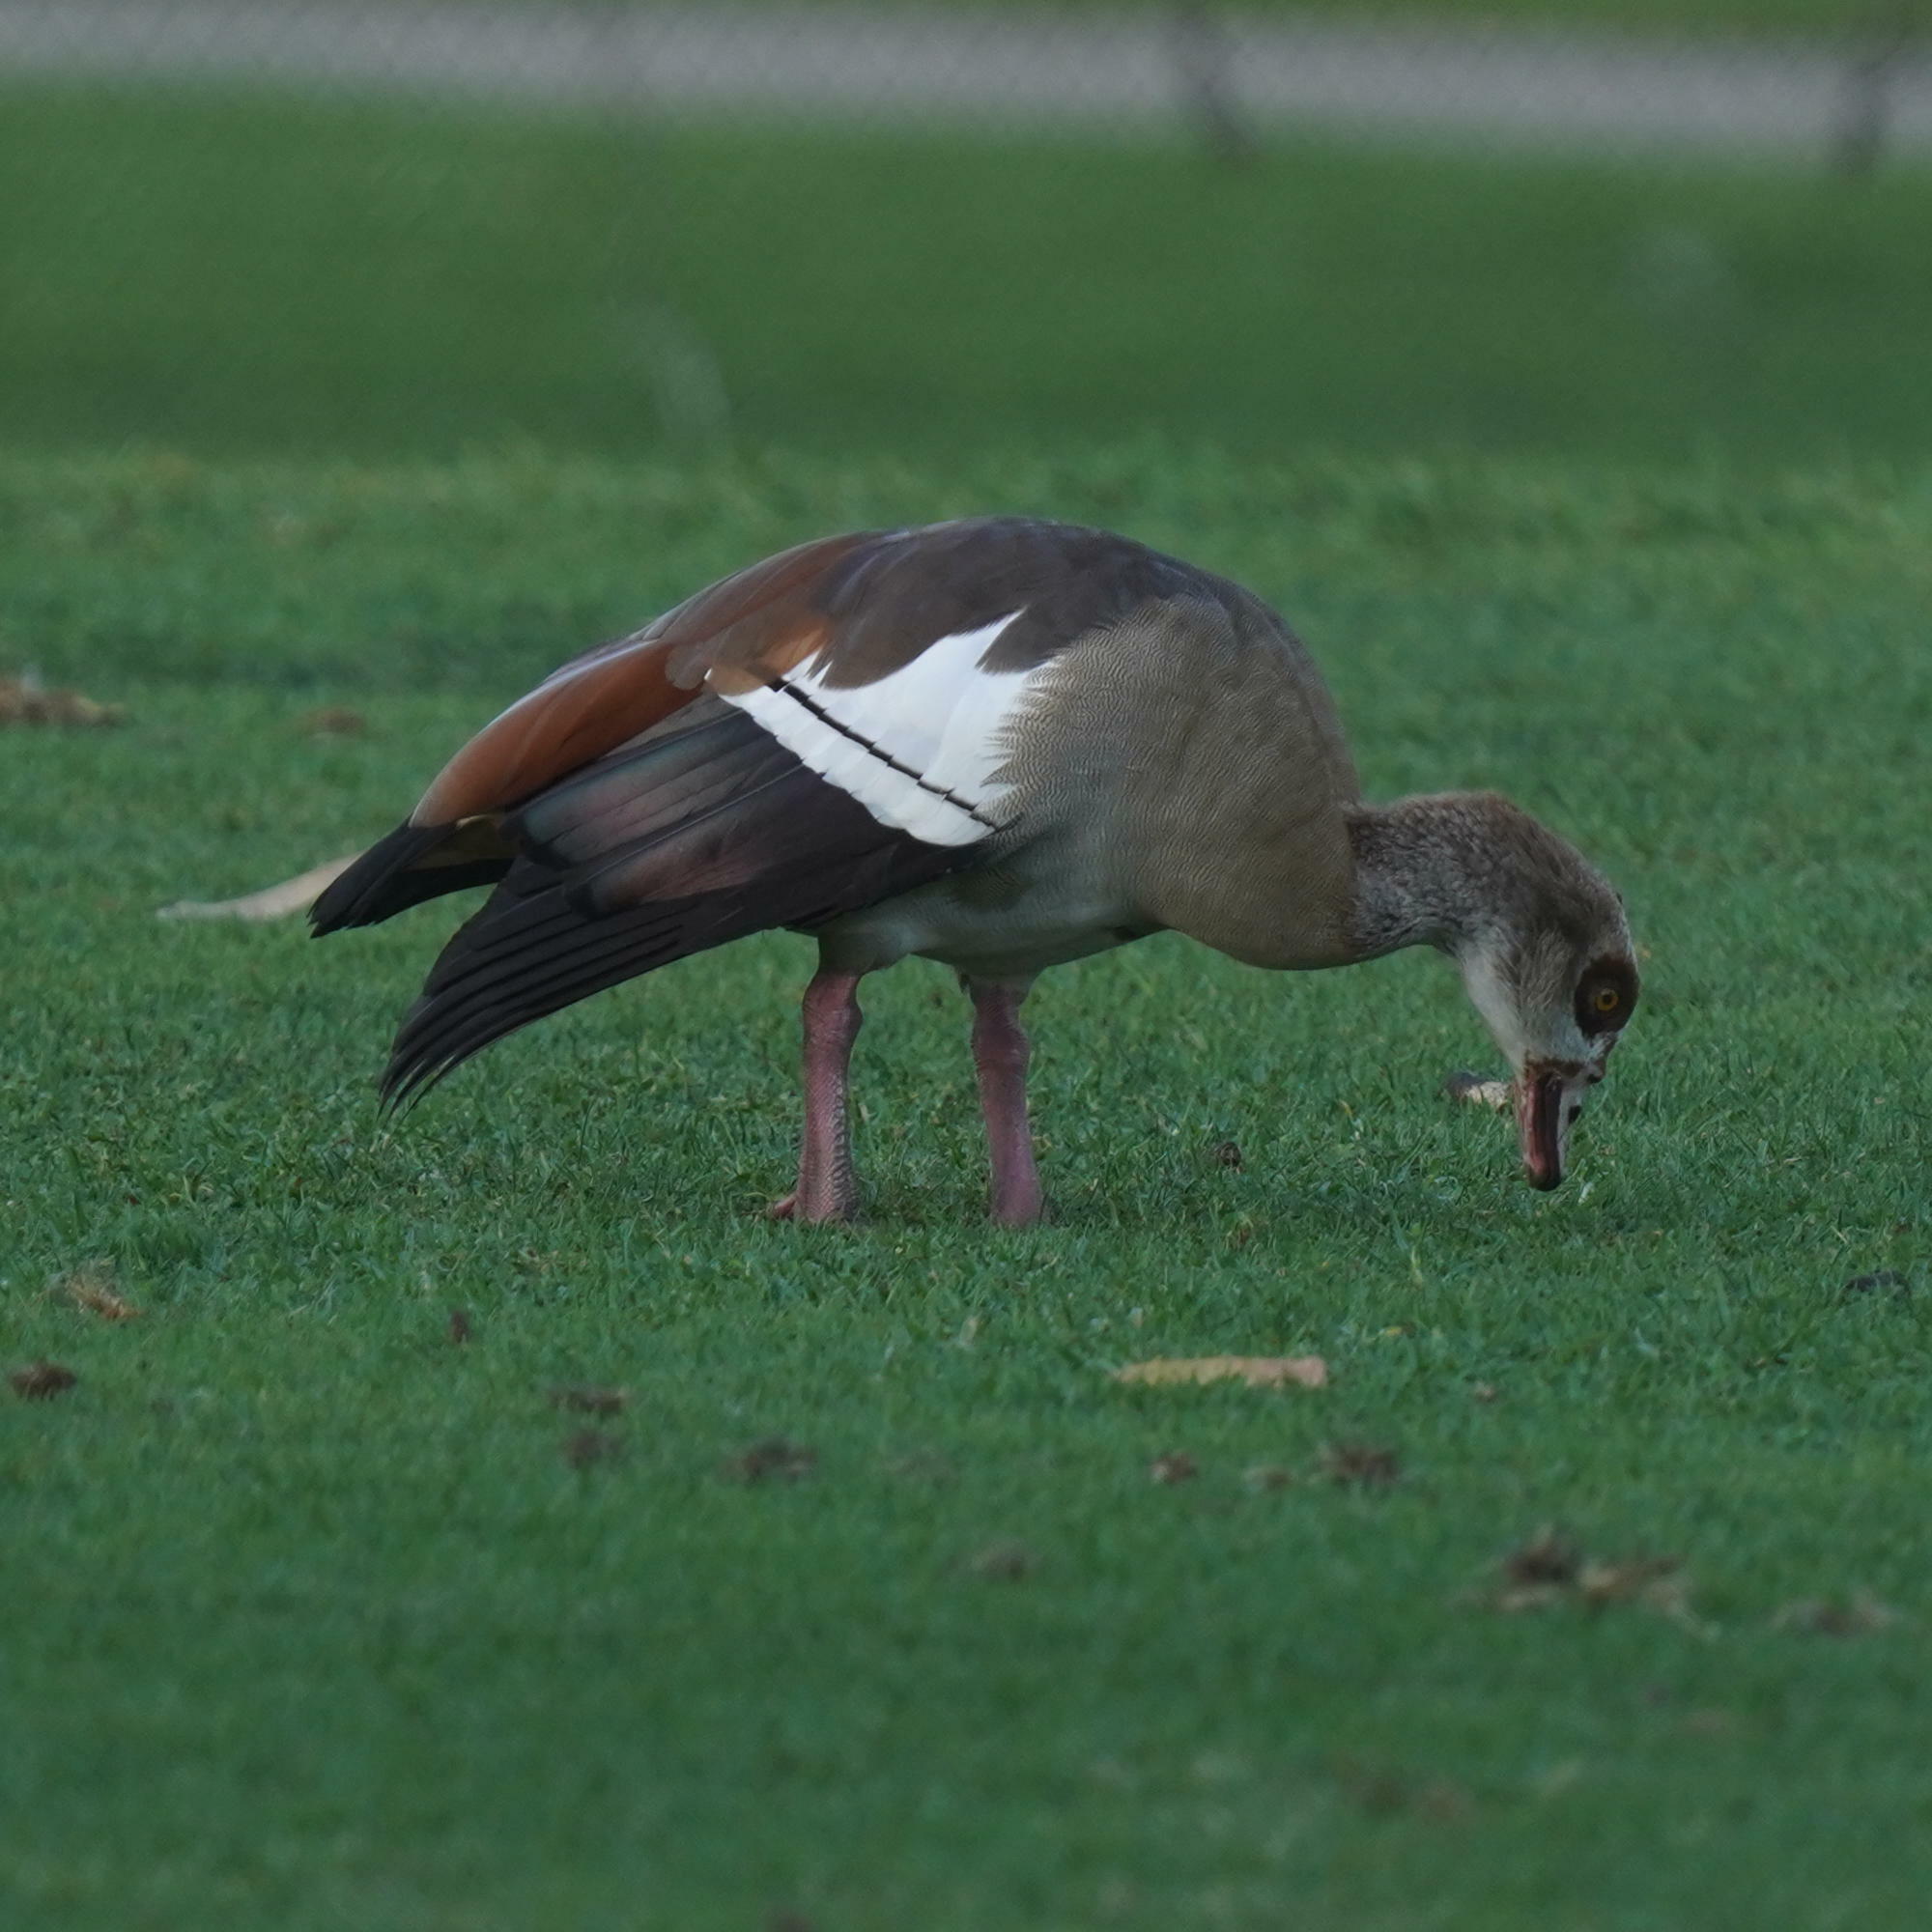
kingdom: Animalia
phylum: Chordata
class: Aves
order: Anseriformes
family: Anatidae
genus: Alopochen
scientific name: Alopochen aegyptiaca
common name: Egyptian goose
